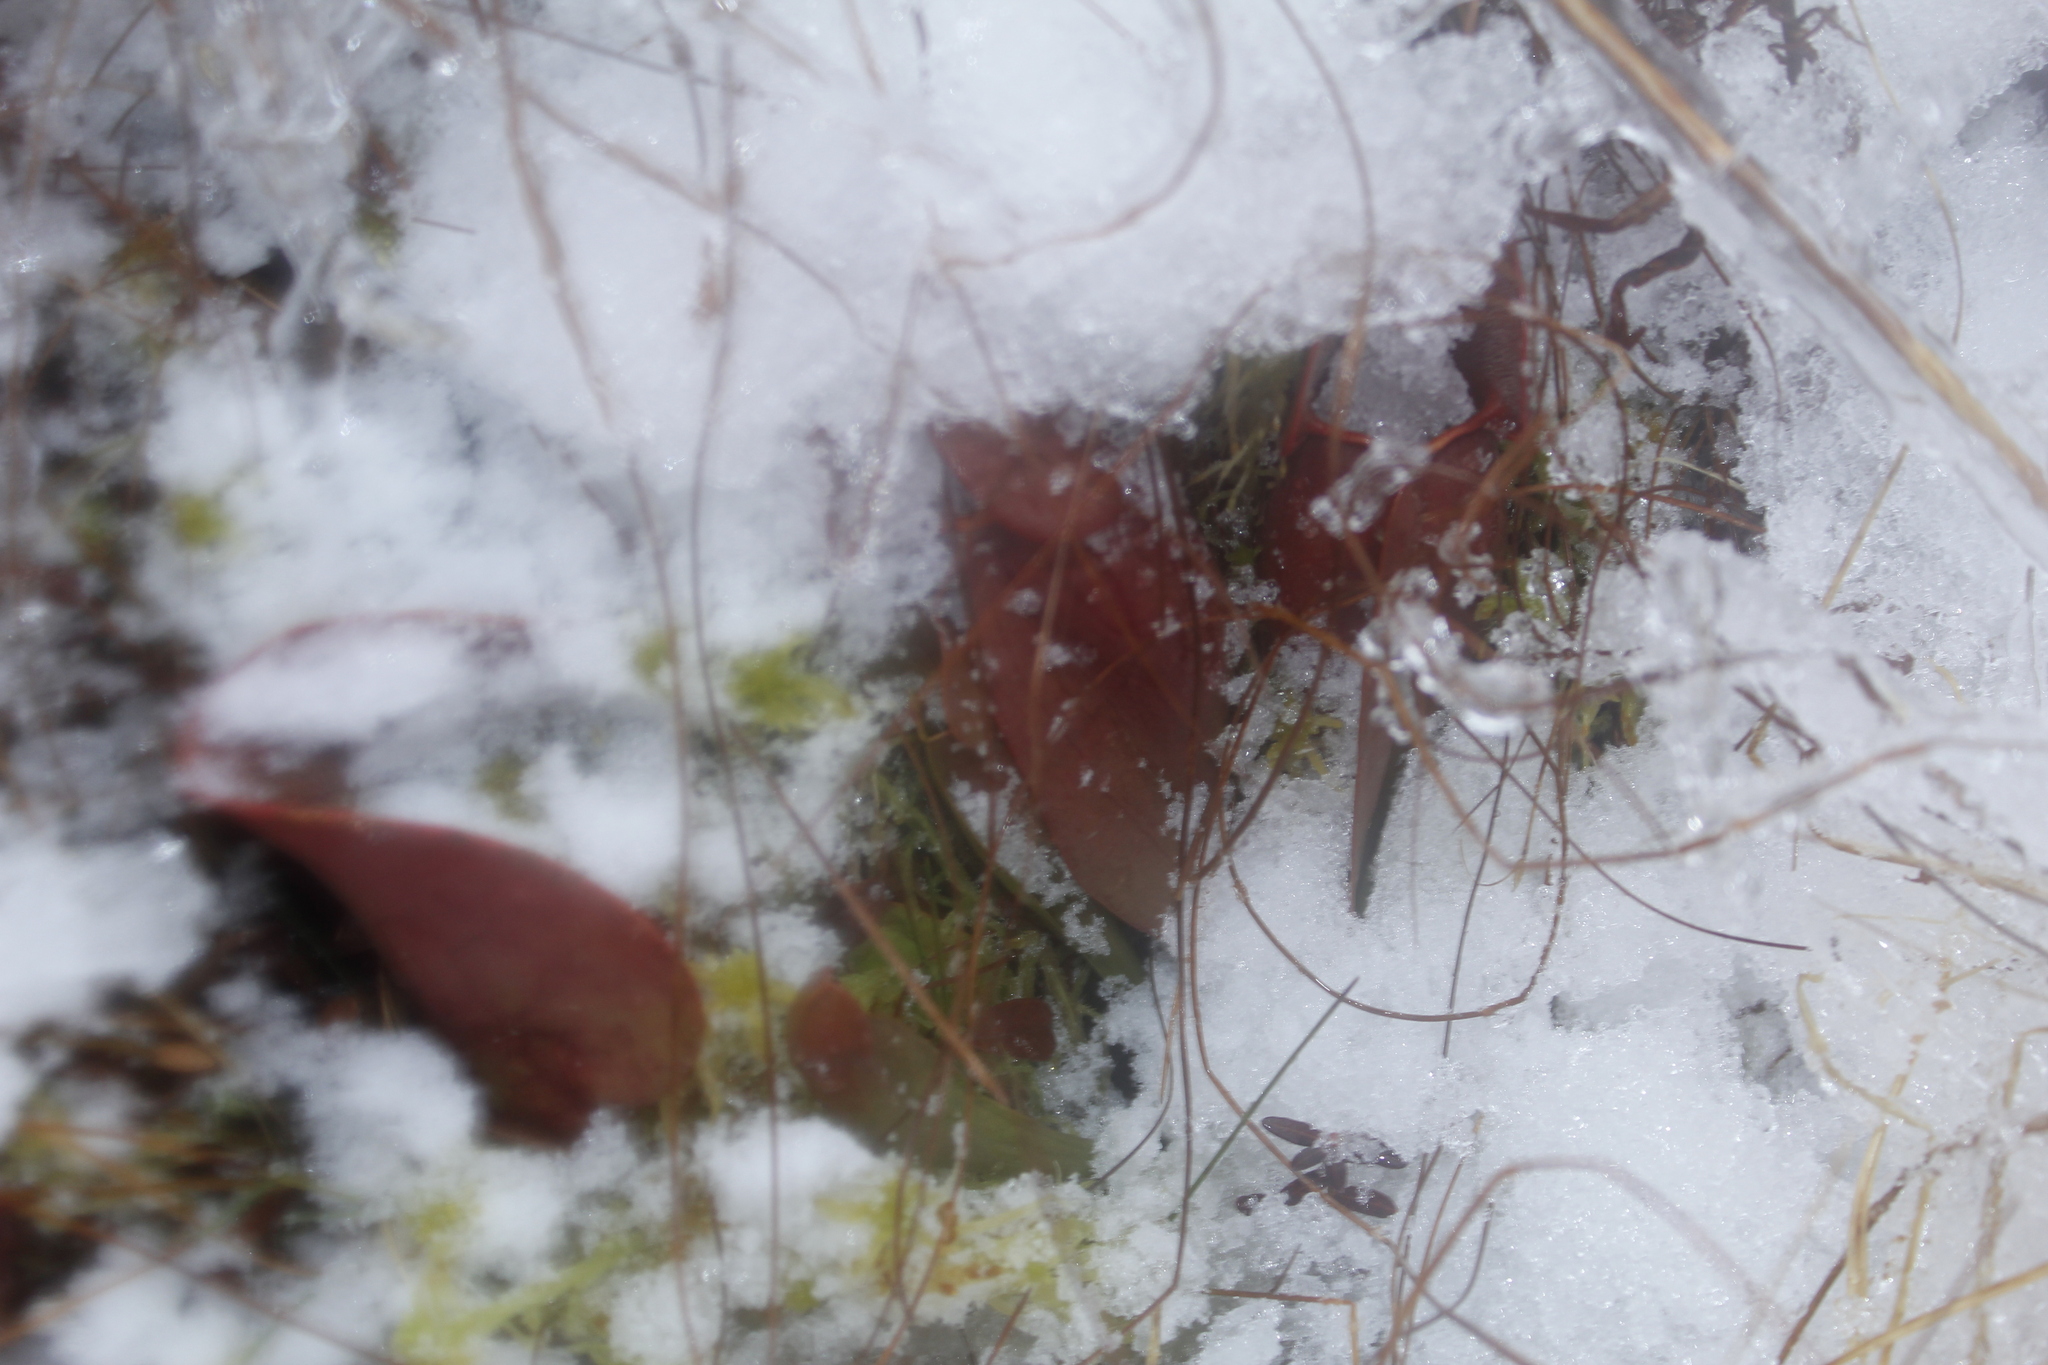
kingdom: Plantae
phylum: Tracheophyta
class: Magnoliopsida
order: Ericales
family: Sarraceniaceae
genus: Sarracenia
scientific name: Sarracenia purpurea
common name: Pitcherplant
